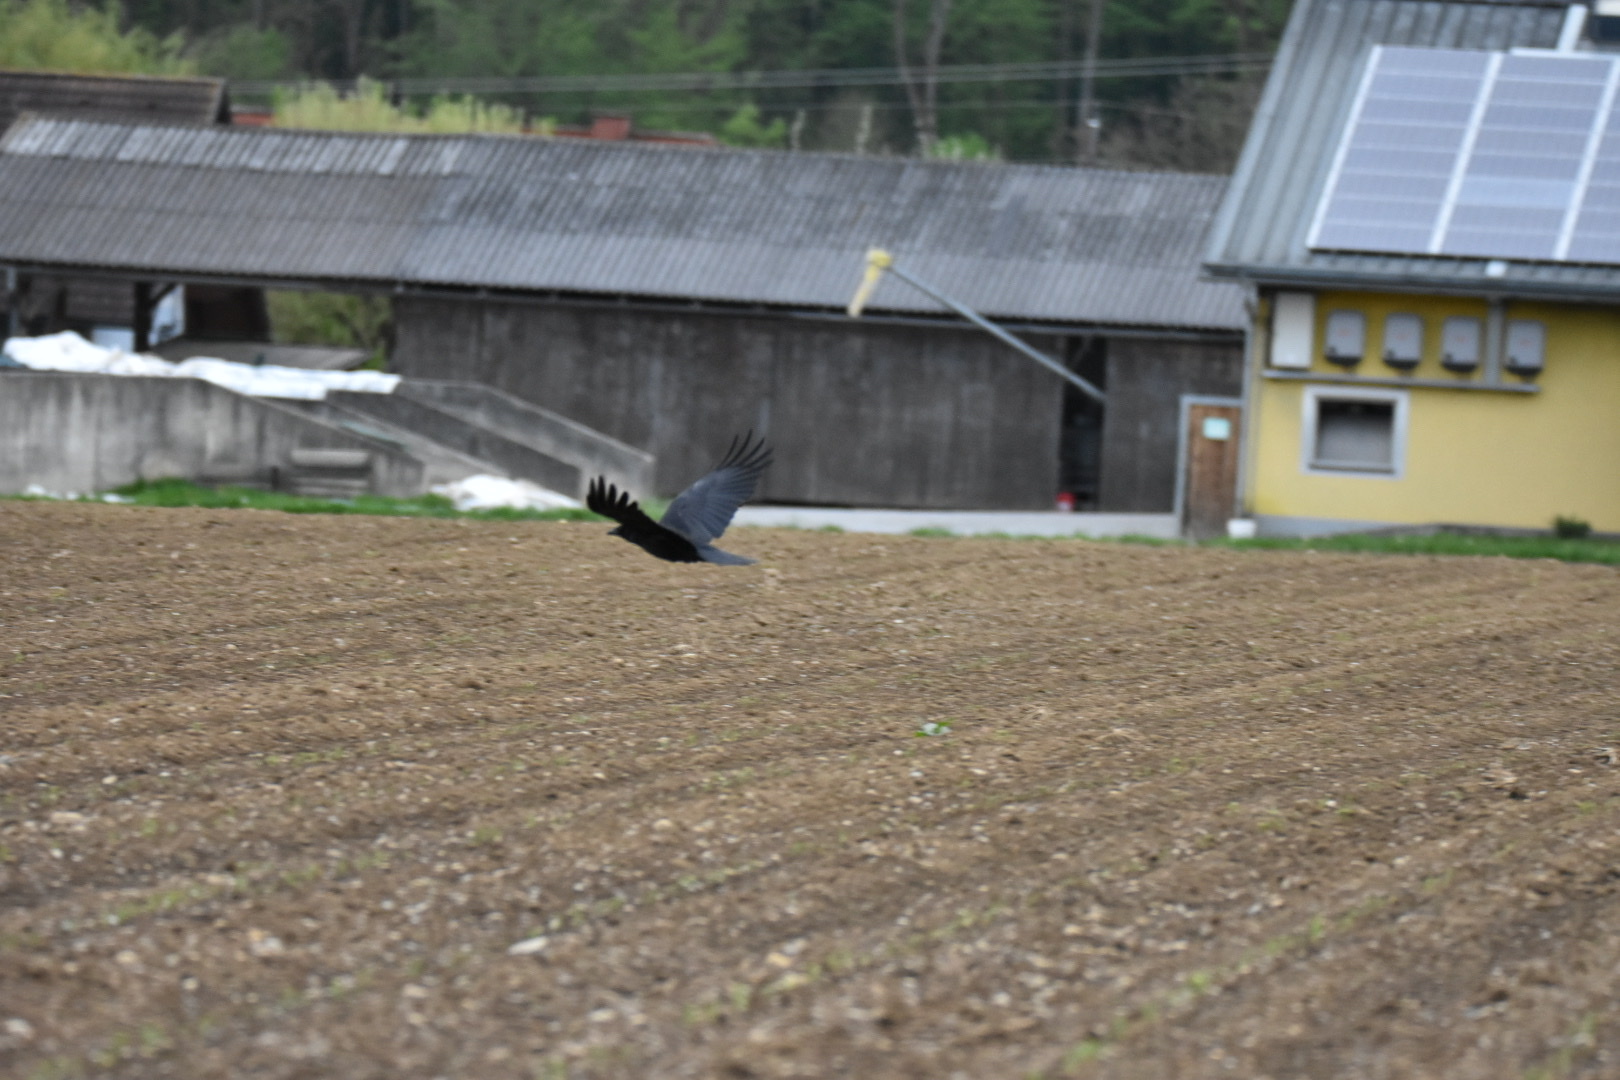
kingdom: Animalia
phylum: Chordata
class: Aves
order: Passeriformes
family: Corvidae
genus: Corvus
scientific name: Corvus corone
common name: Carrion crow
